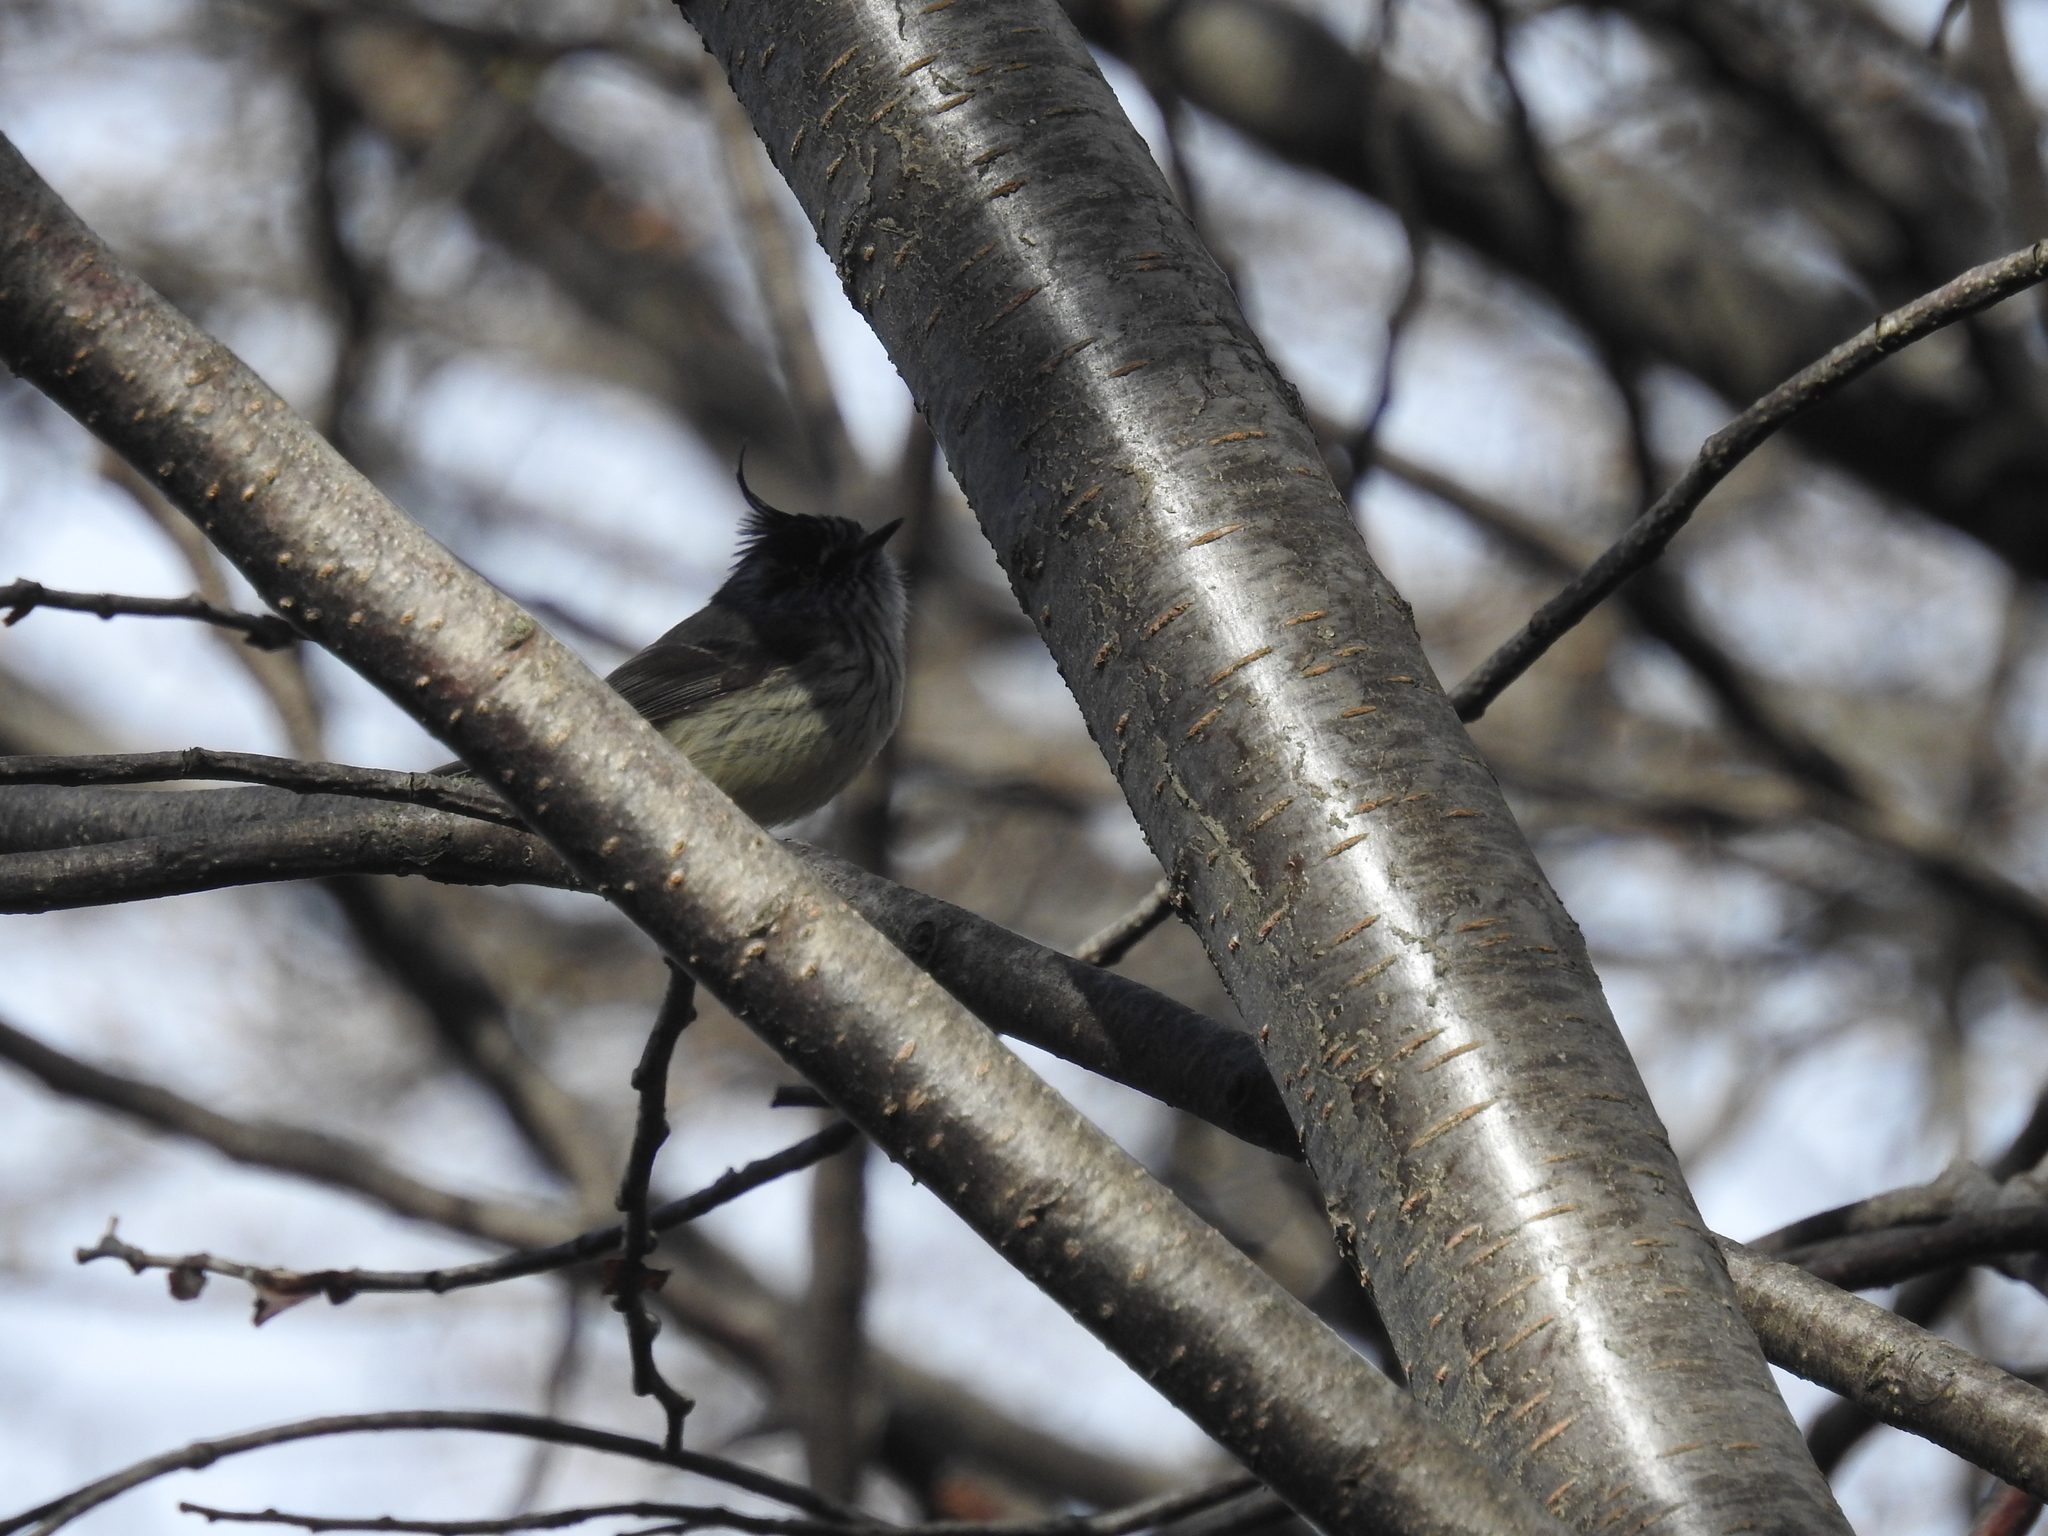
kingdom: Animalia
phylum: Chordata
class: Aves
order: Passeriformes
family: Tyrannidae
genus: Anairetes
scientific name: Anairetes parulus
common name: Tufted tit-tyrant
